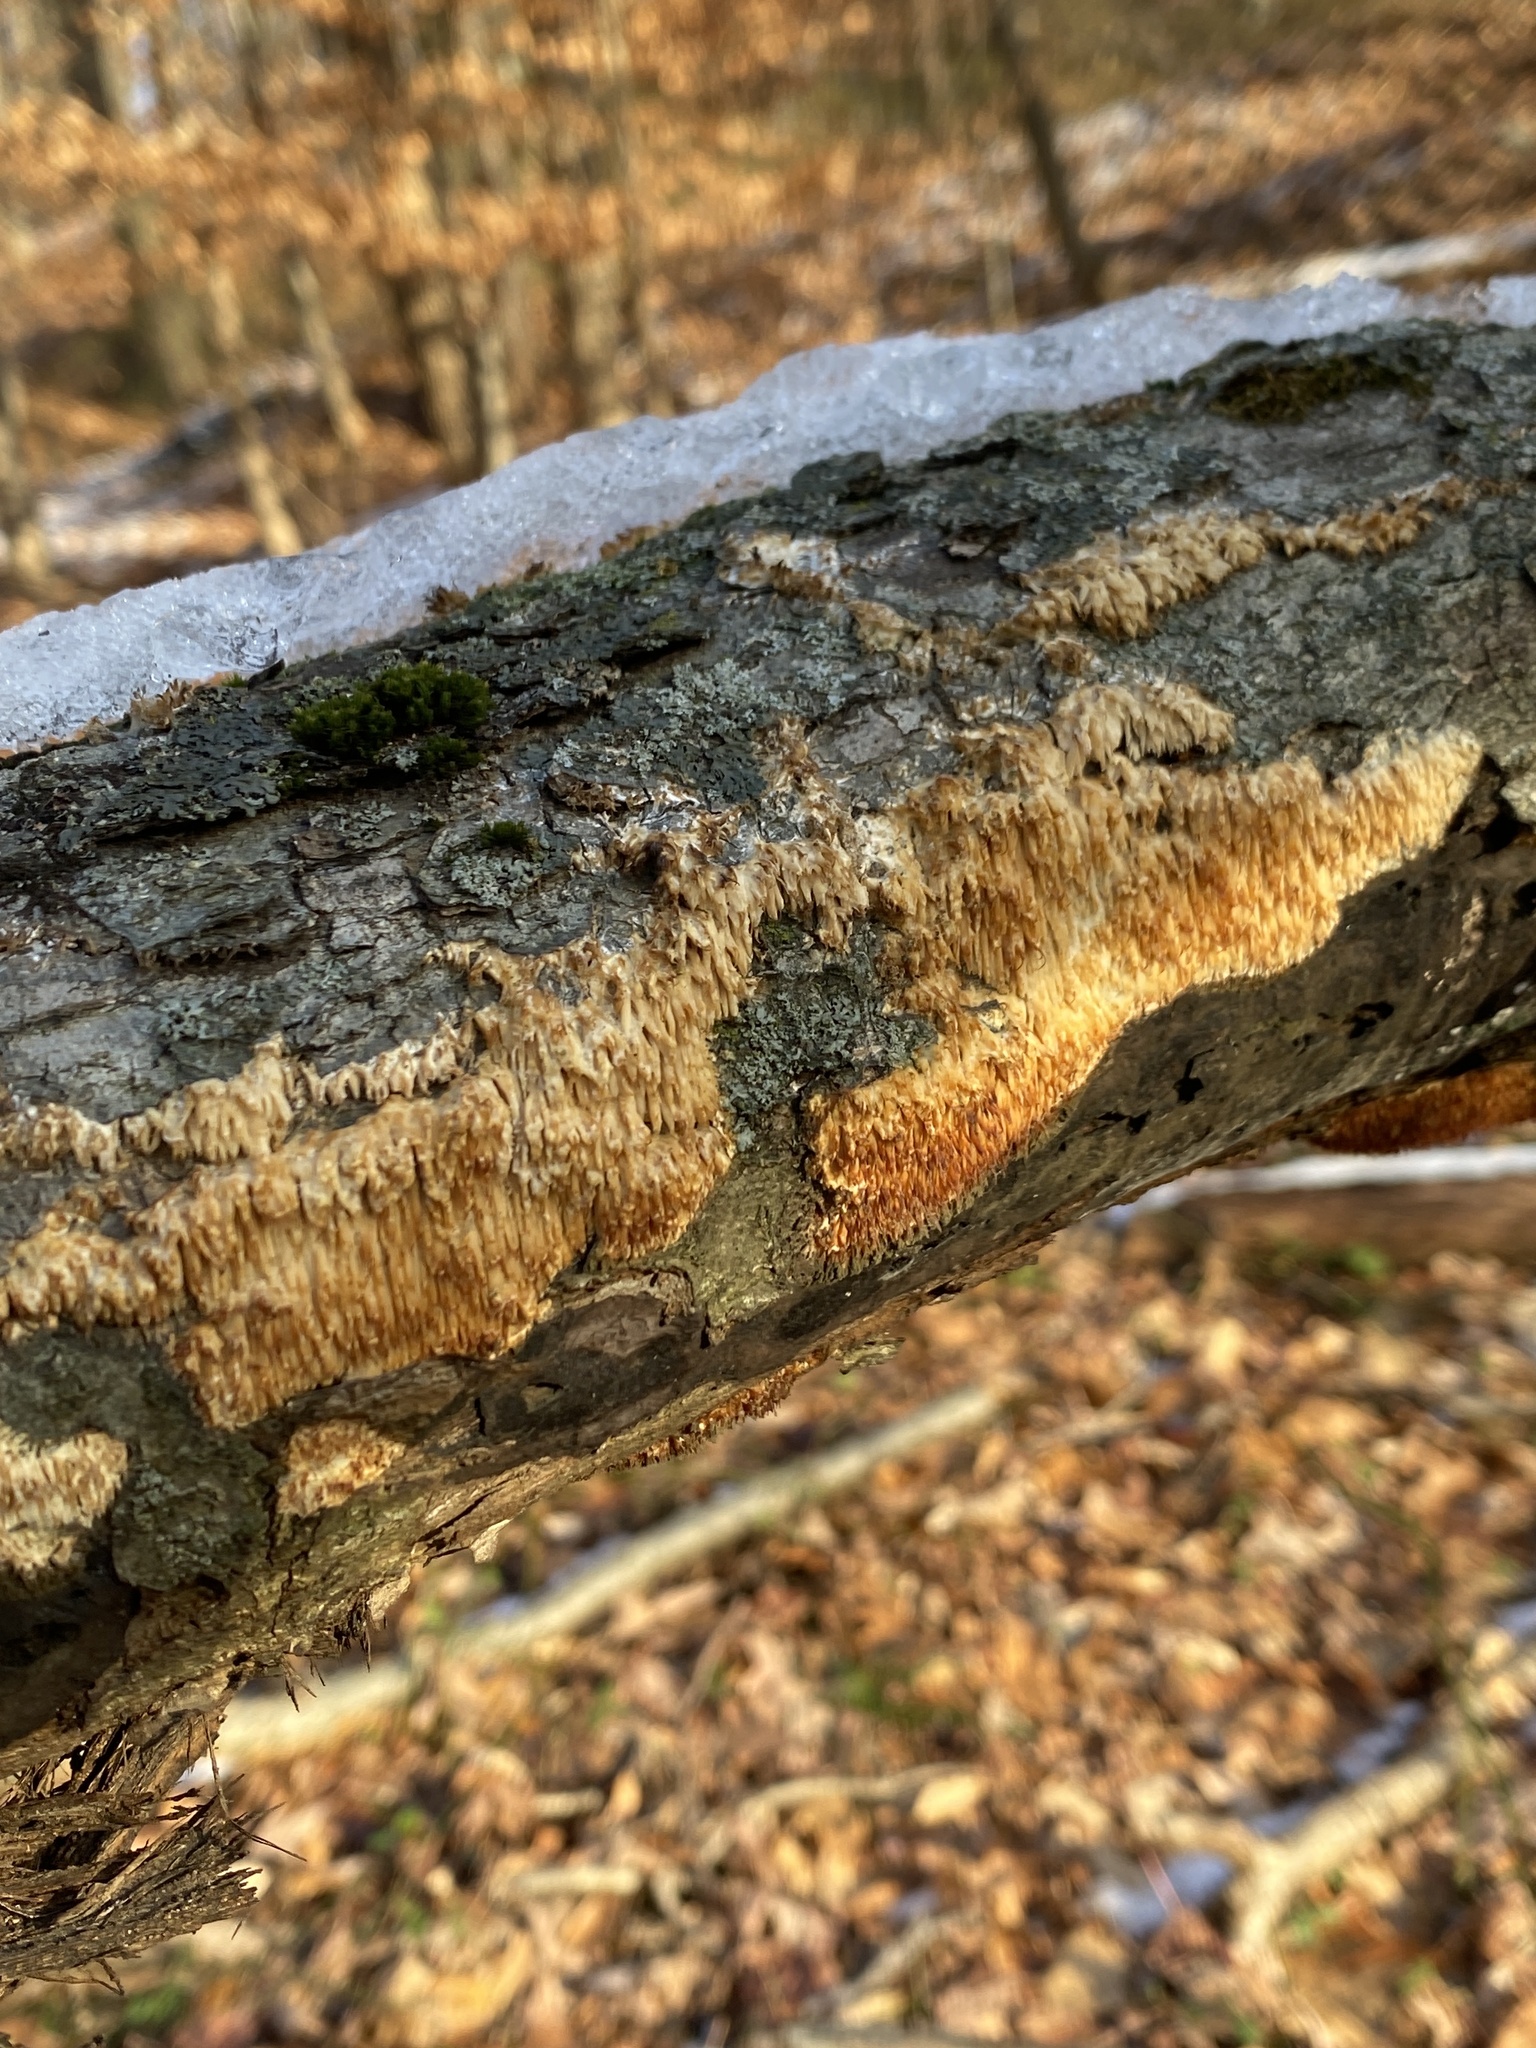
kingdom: Fungi
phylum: Basidiomycota
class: Agaricomycetes
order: Agaricales
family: Radulomycetaceae
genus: Radulomyces
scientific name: Radulomyces copelandii
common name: Asian beauty
